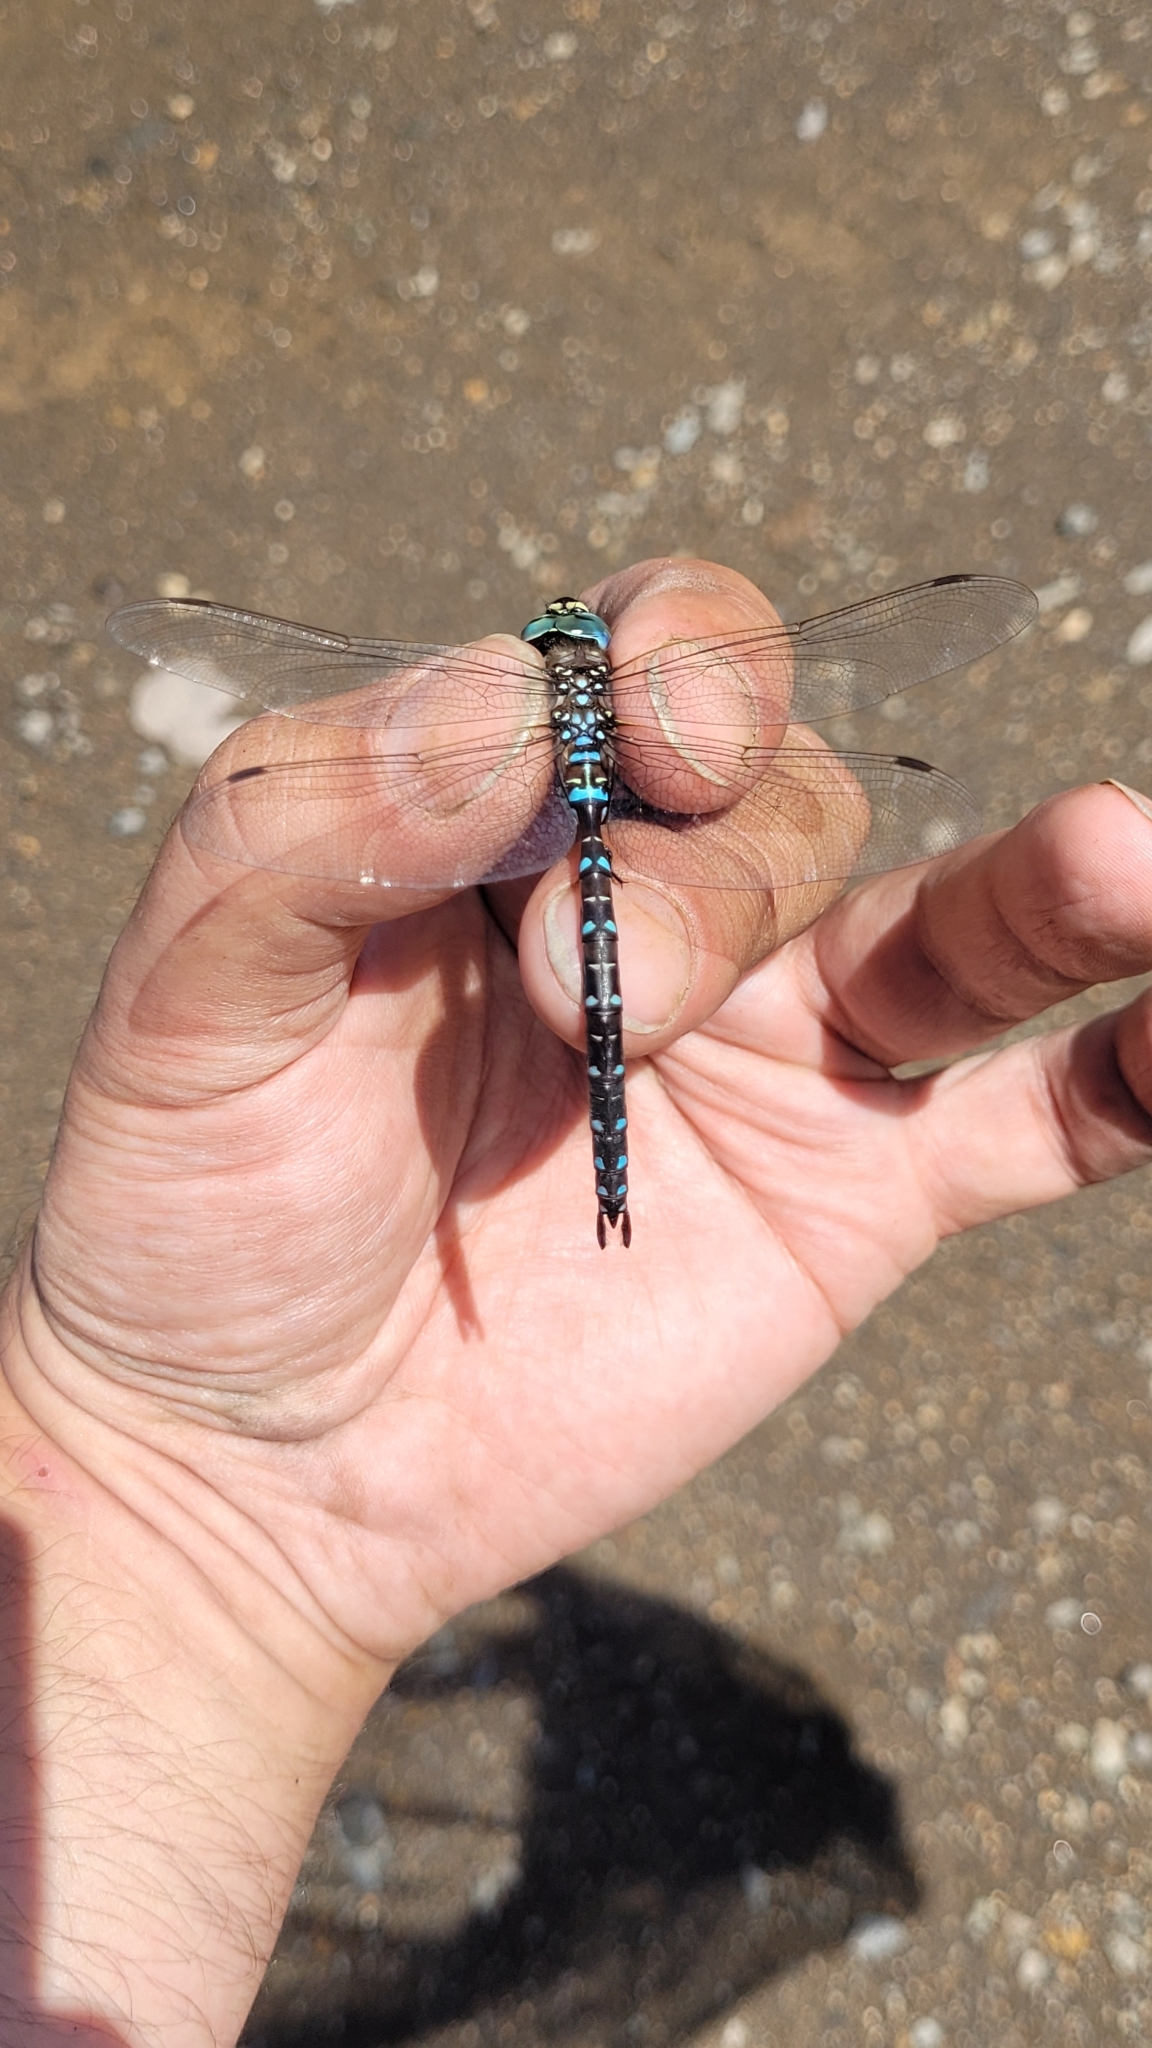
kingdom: Animalia
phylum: Arthropoda
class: Insecta
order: Odonata
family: Aeshnidae
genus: Aeshna
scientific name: Aeshna juncea
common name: Moorland hawker
